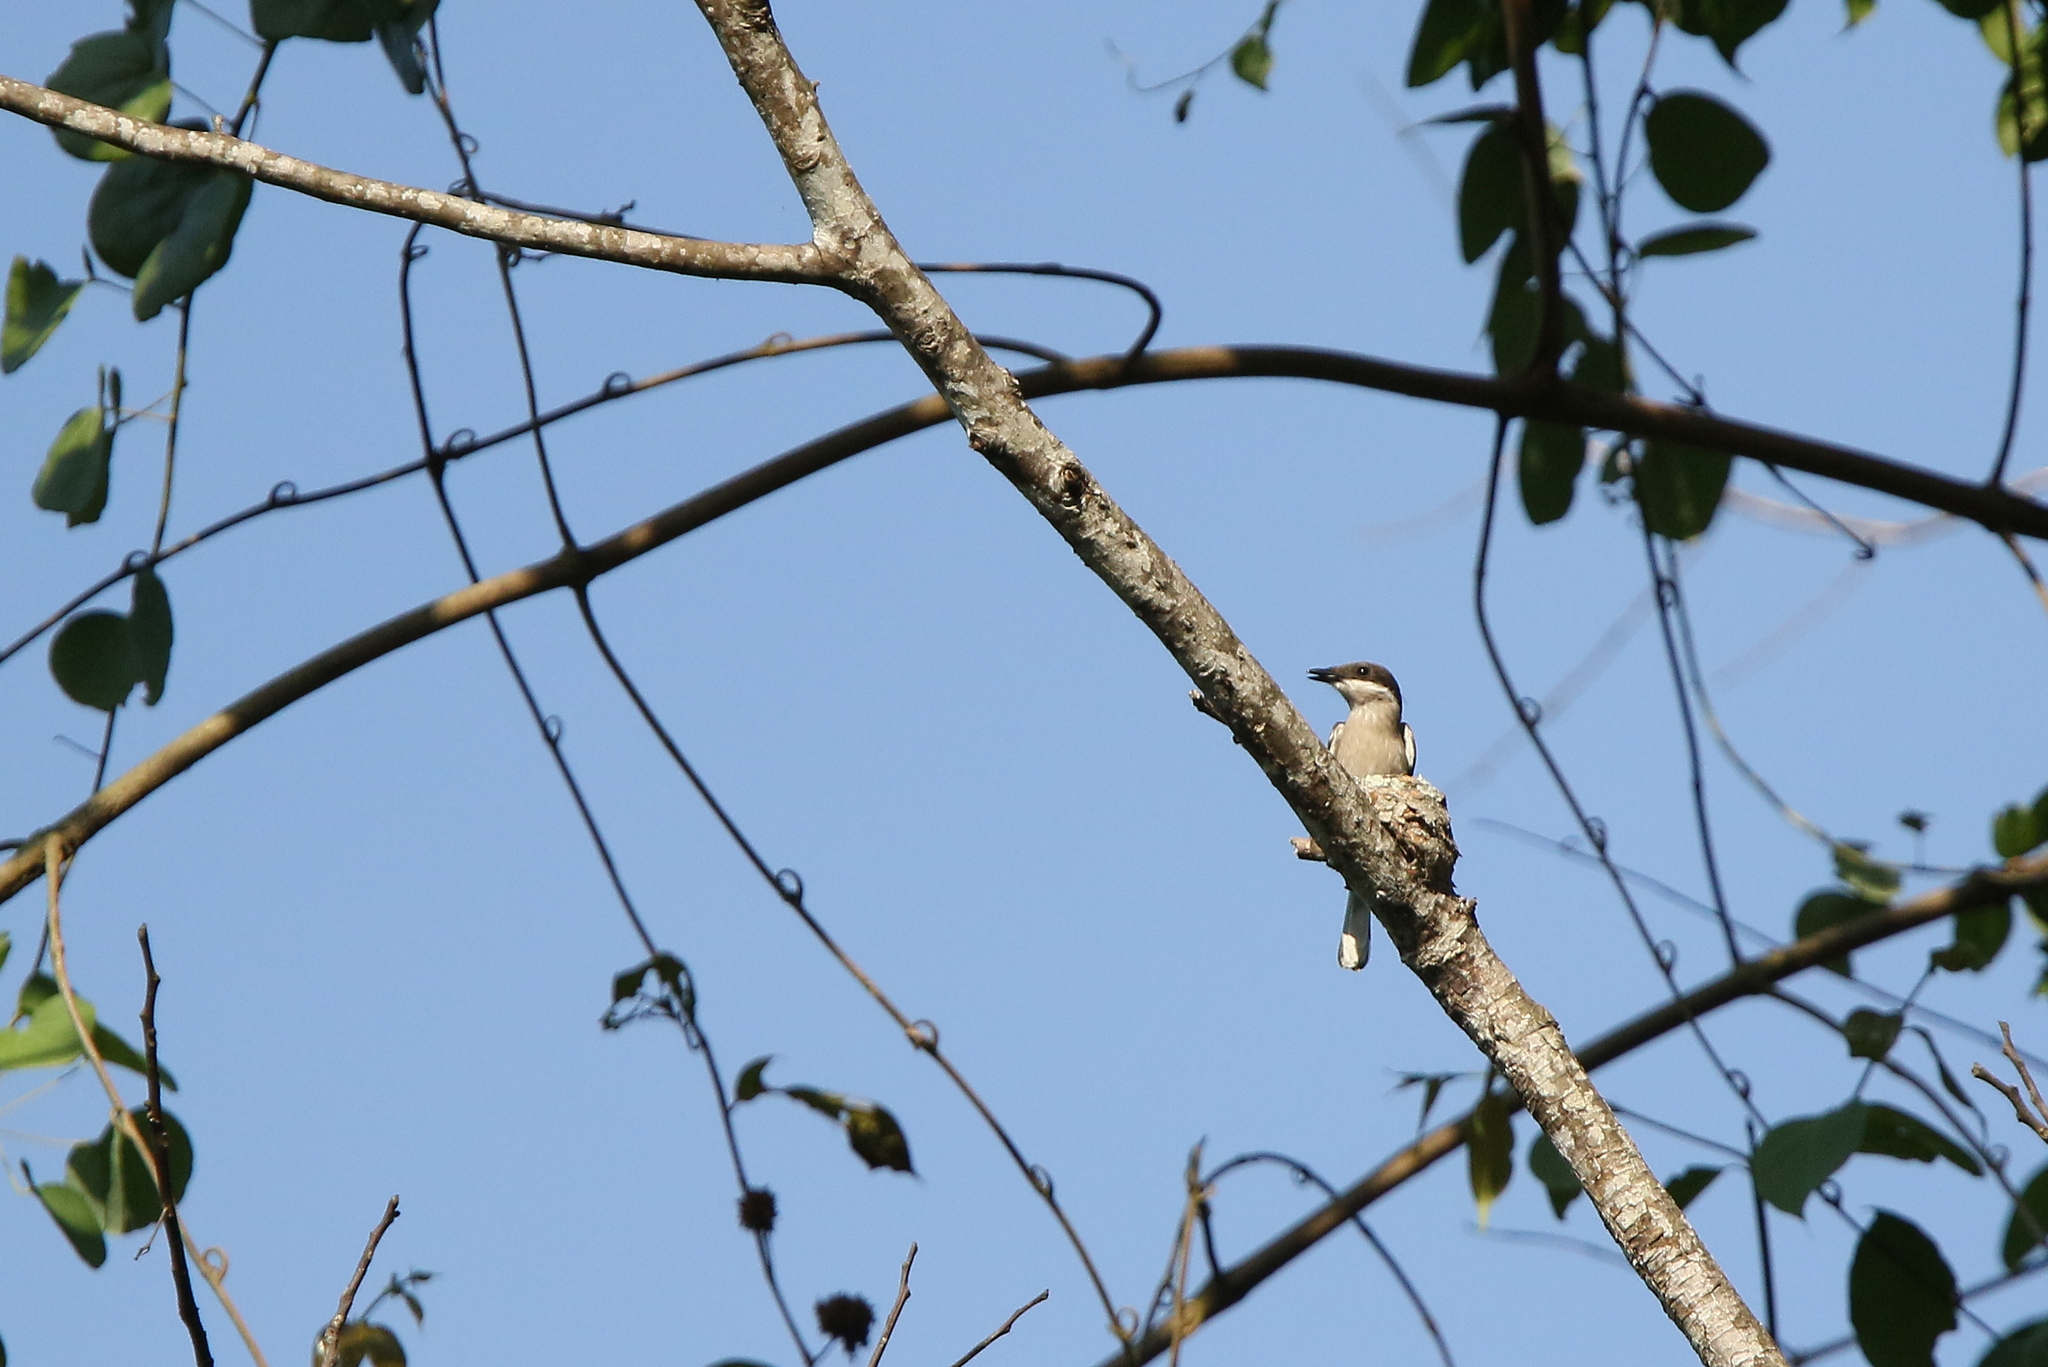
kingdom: Animalia
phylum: Chordata
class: Aves
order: Passeriformes
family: Tephrodornithidae
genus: Hemipus
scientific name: Hemipus picatus
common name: Bar-winged flycatcher-shrike
